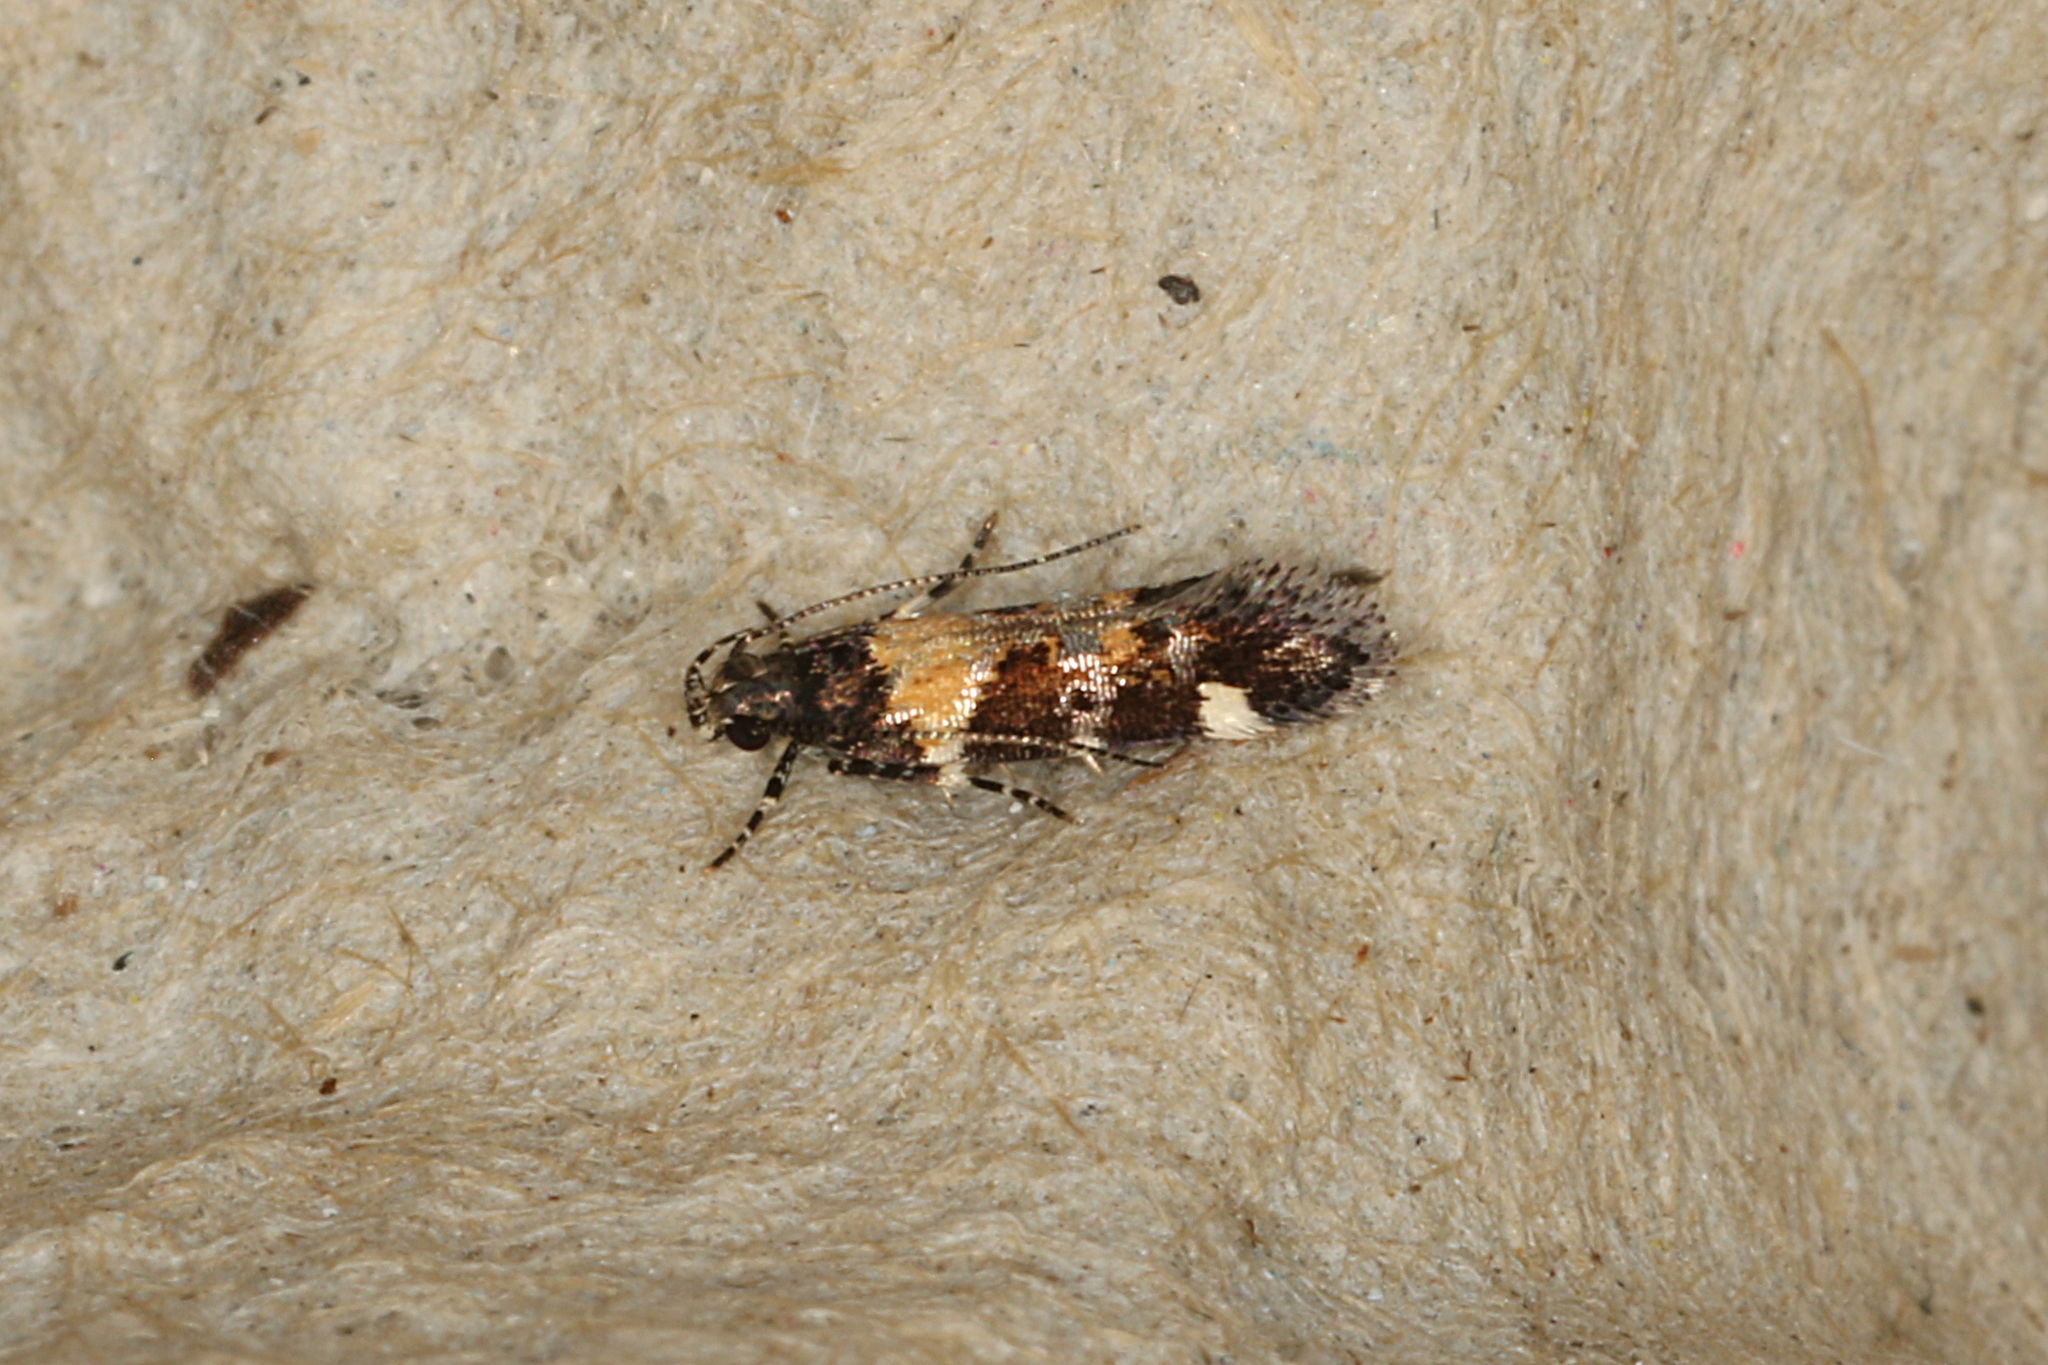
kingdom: Animalia
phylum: Arthropoda
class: Insecta
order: Lepidoptera
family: Gelechiidae
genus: Stegasta
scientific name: Stegasta variana
